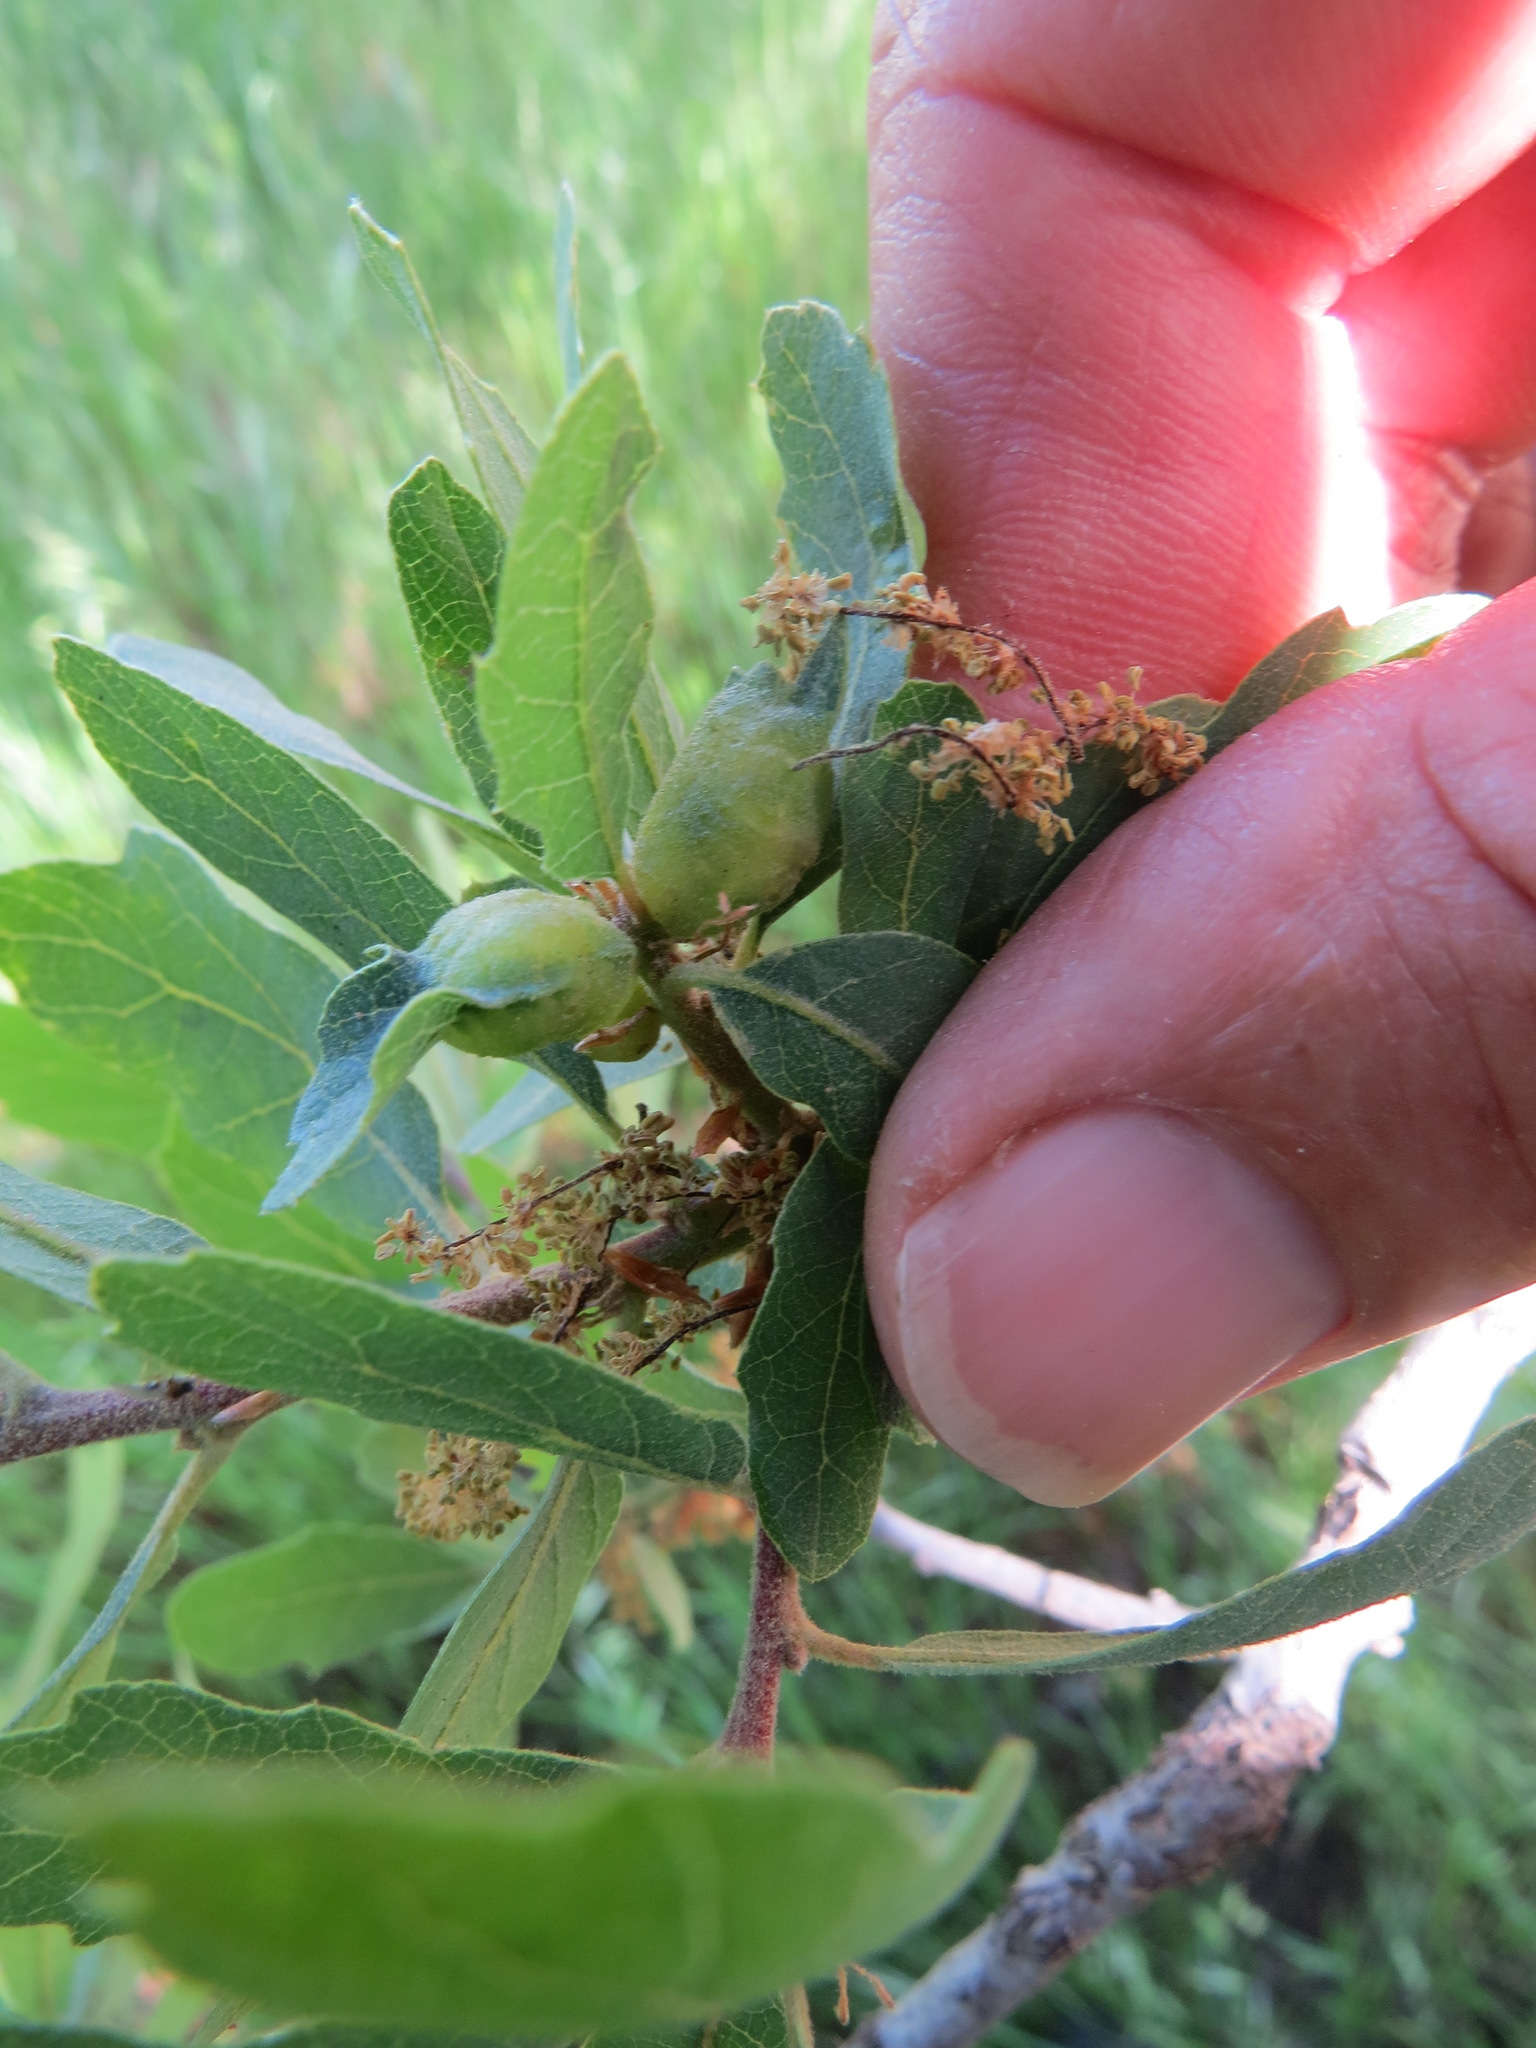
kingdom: Animalia
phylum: Arthropoda
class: Insecta
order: Hymenoptera
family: Cynipidae
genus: Neuroterus
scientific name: Neuroterus
